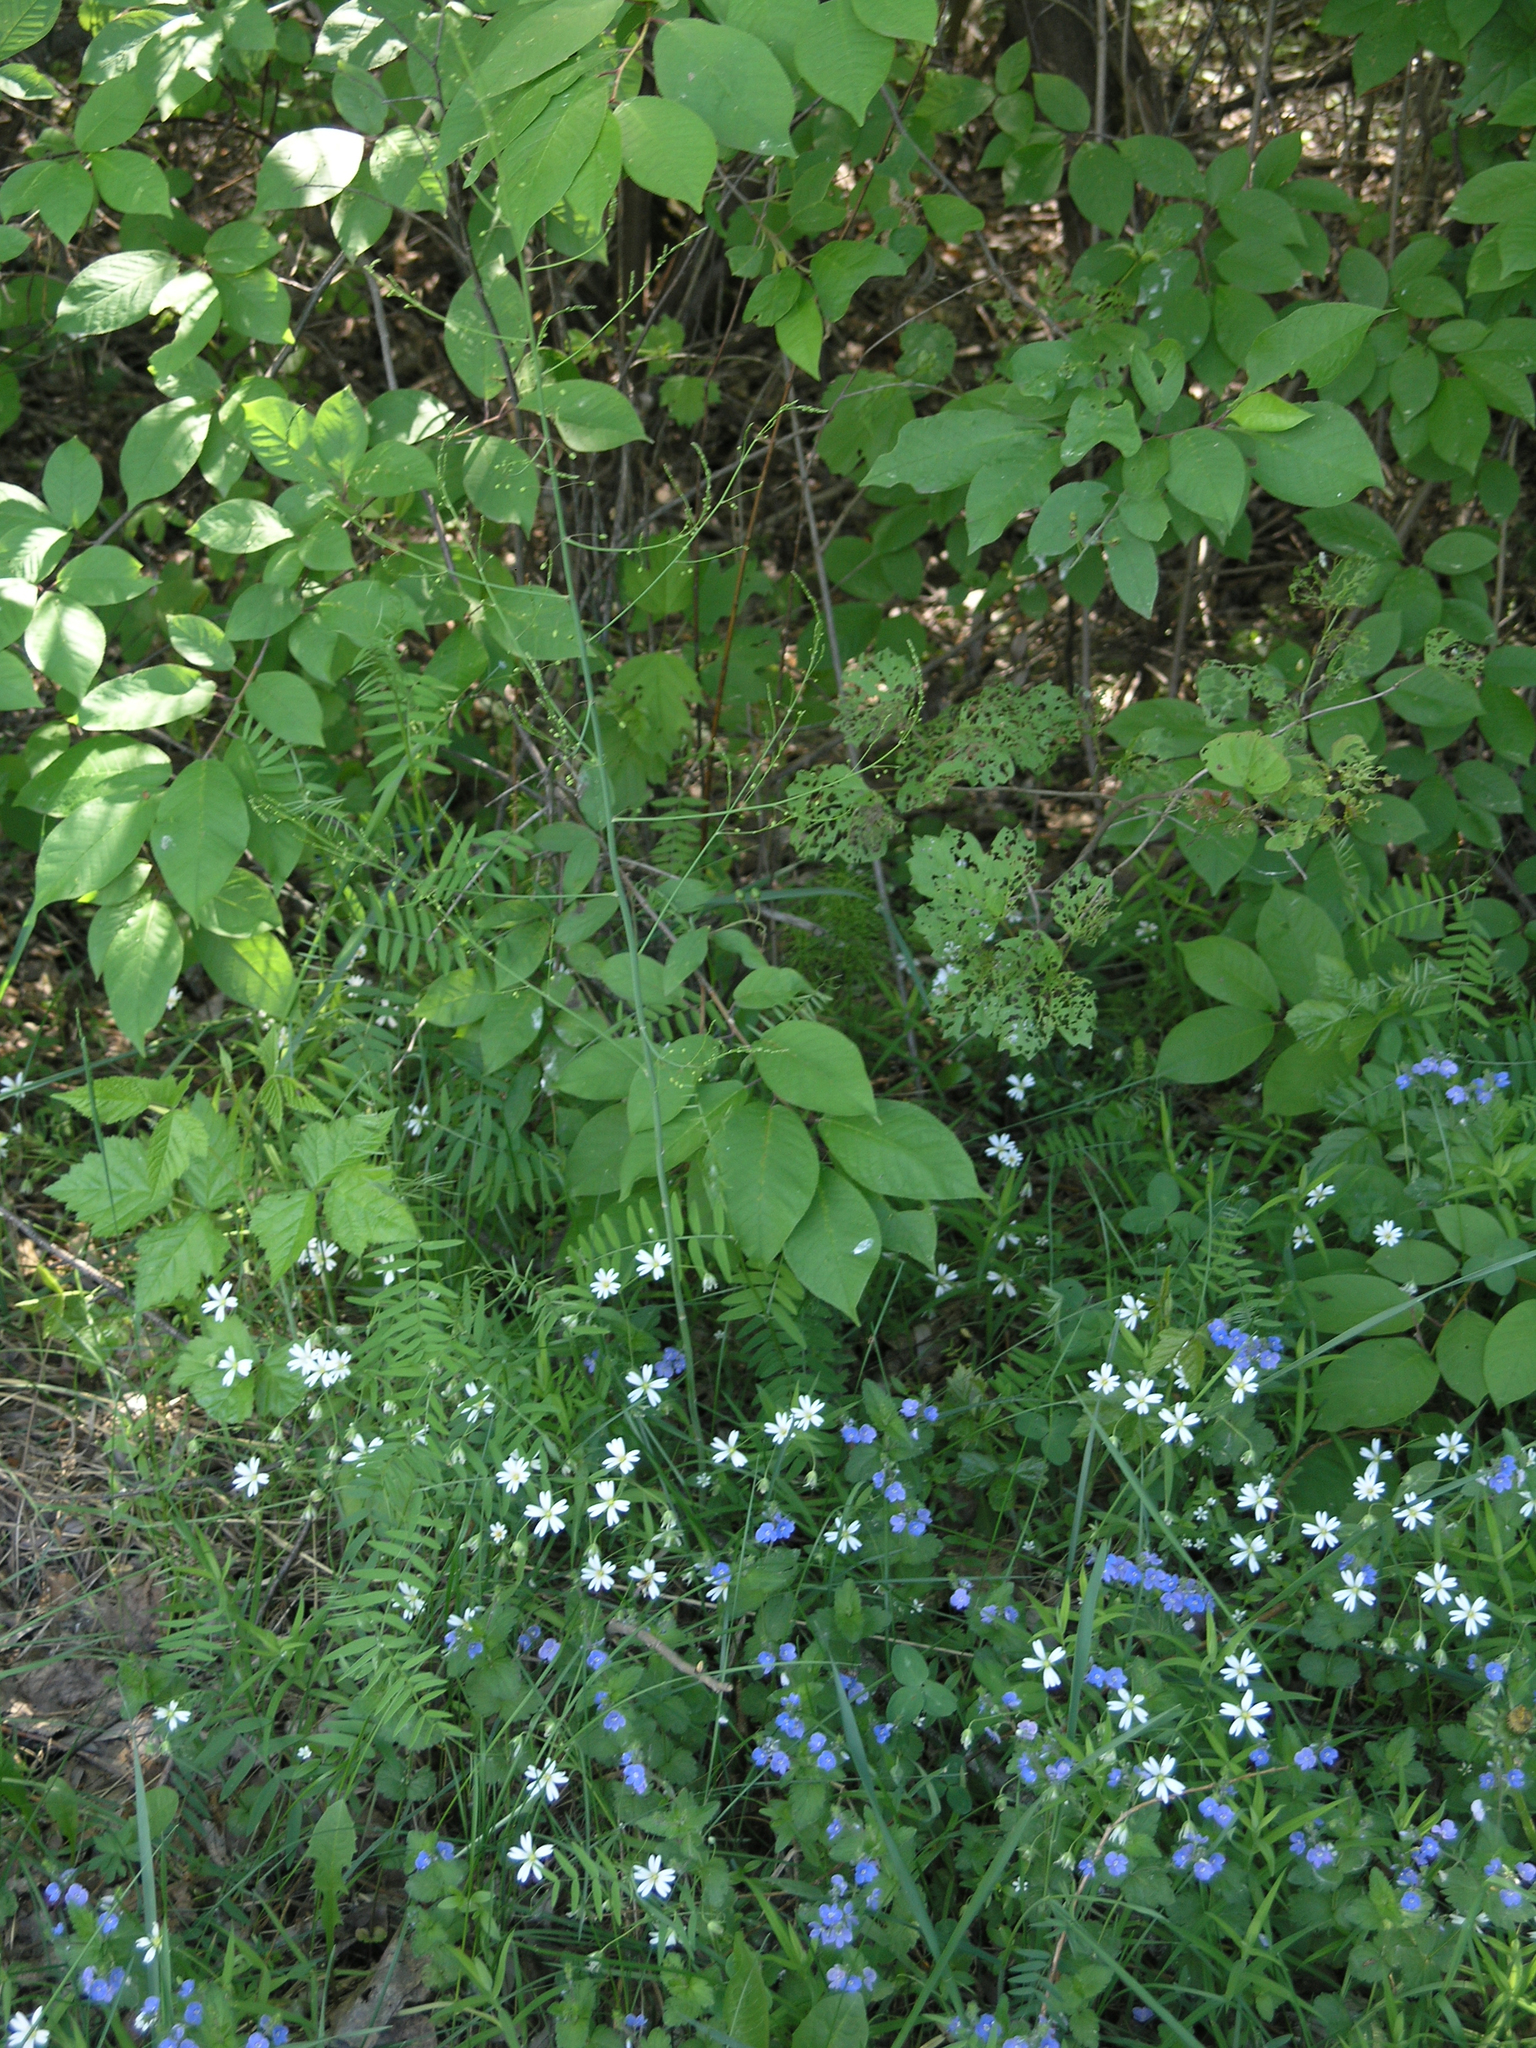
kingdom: Plantae
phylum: Tracheophyta
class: Liliopsida
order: Asparagales
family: Asparagaceae
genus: Asparagus
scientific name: Asparagus officinalis
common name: Garden asparagus
